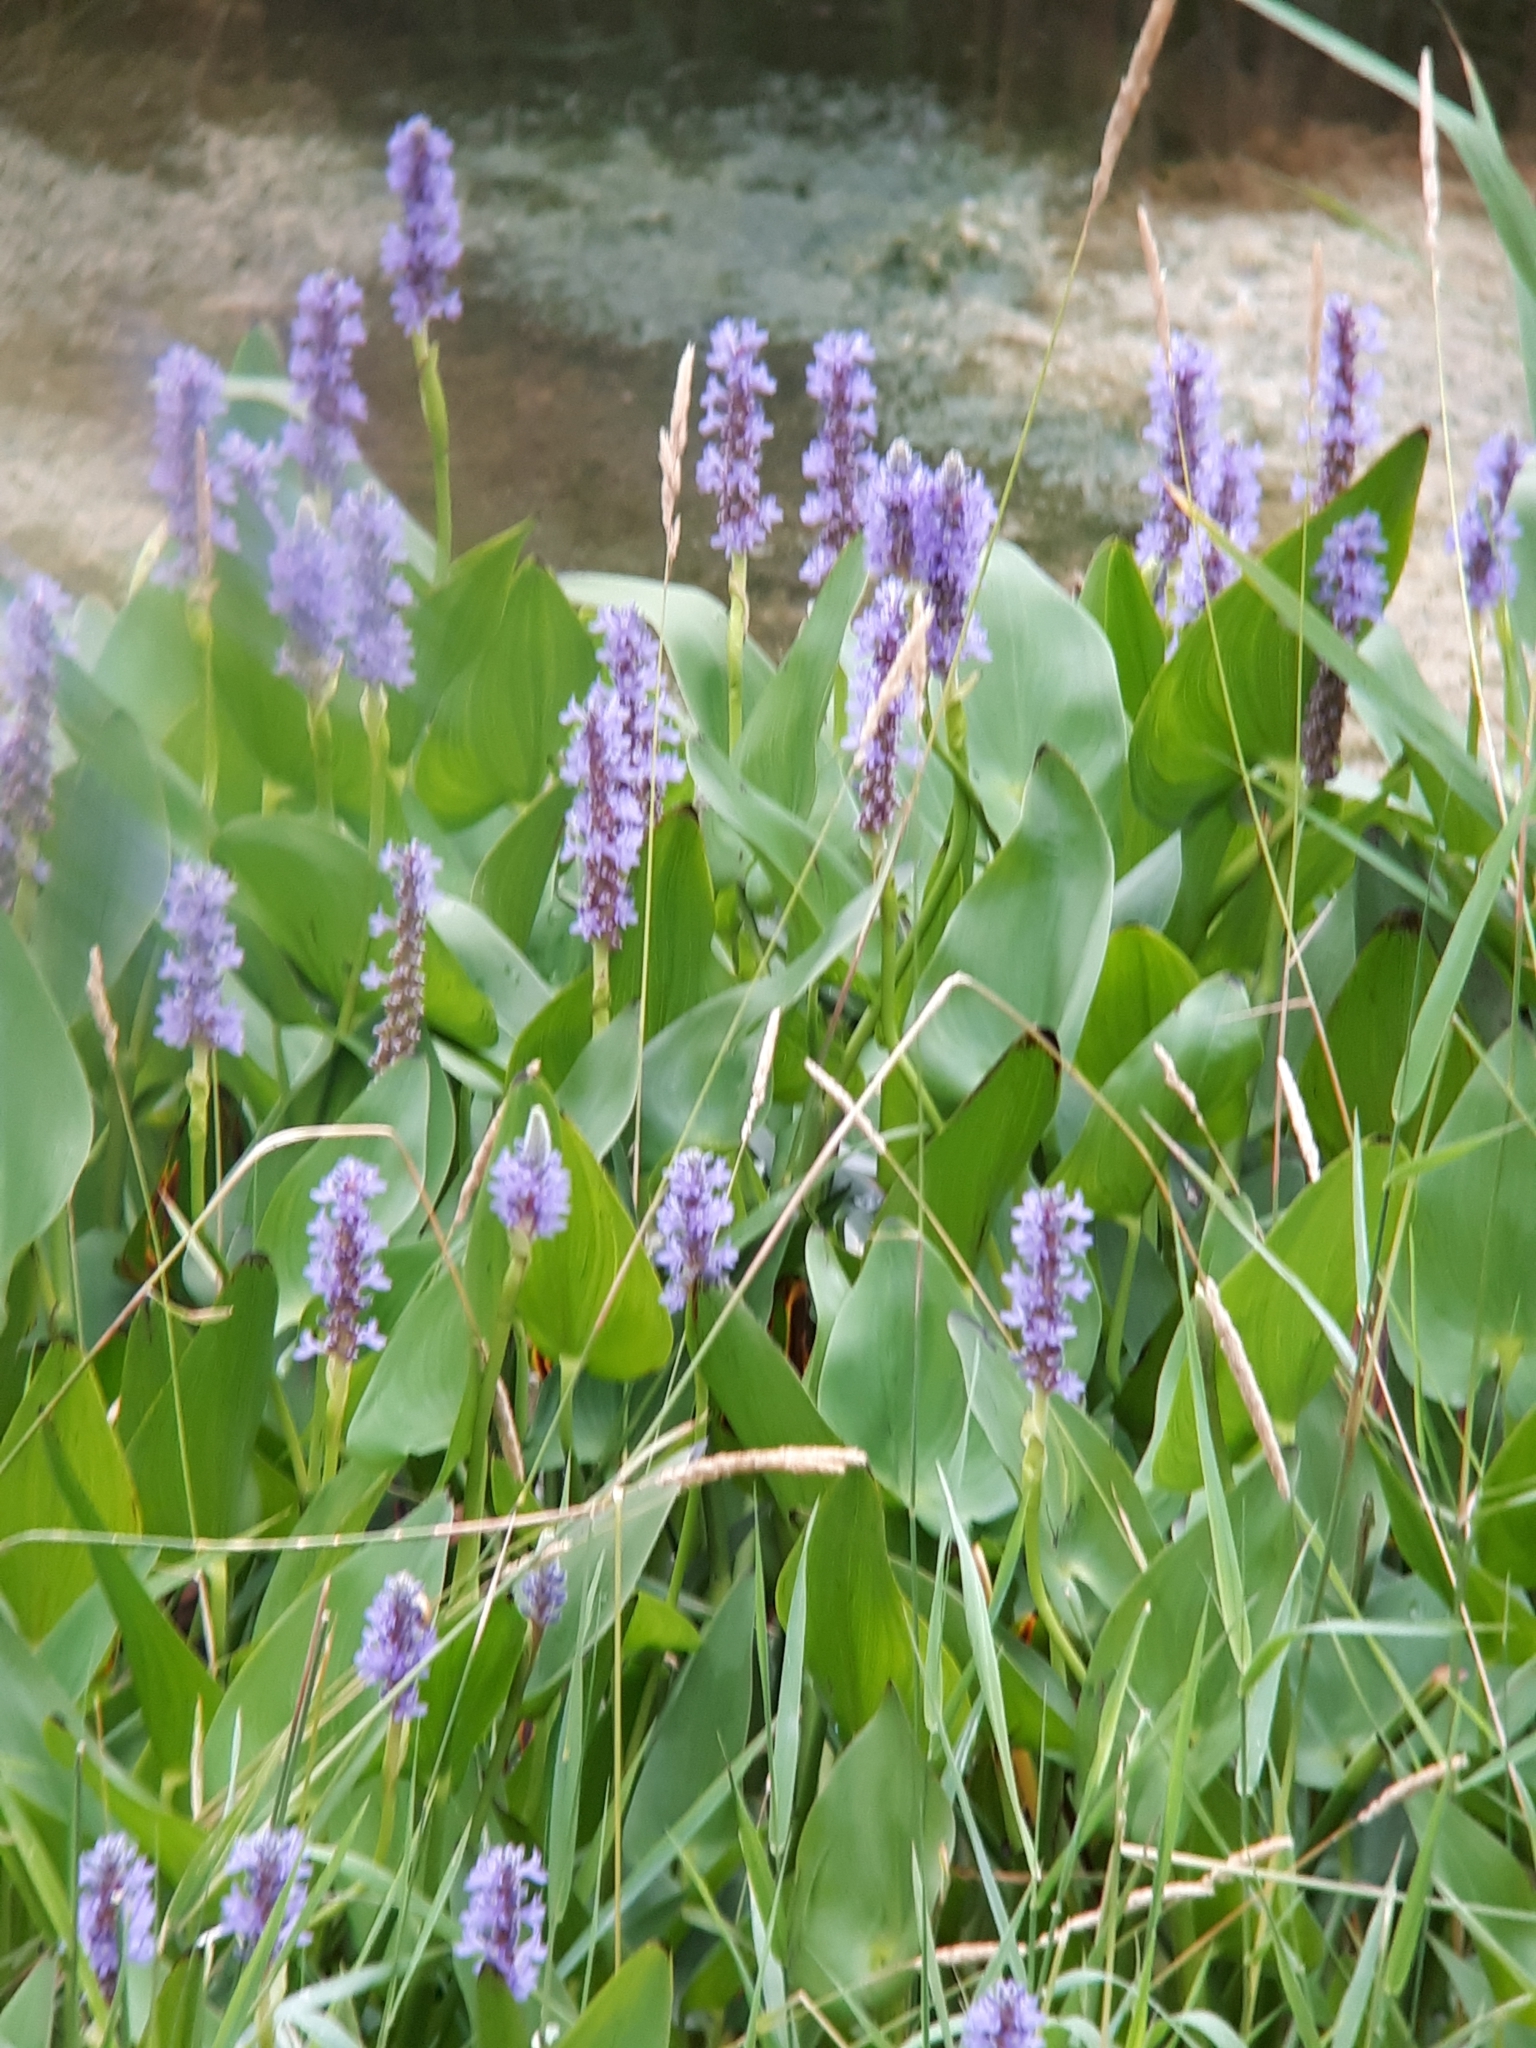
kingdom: Plantae
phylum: Tracheophyta
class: Liliopsida
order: Commelinales
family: Pontederiaceae
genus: Pontederia
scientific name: Pontederia cordata
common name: Pickerelweed
